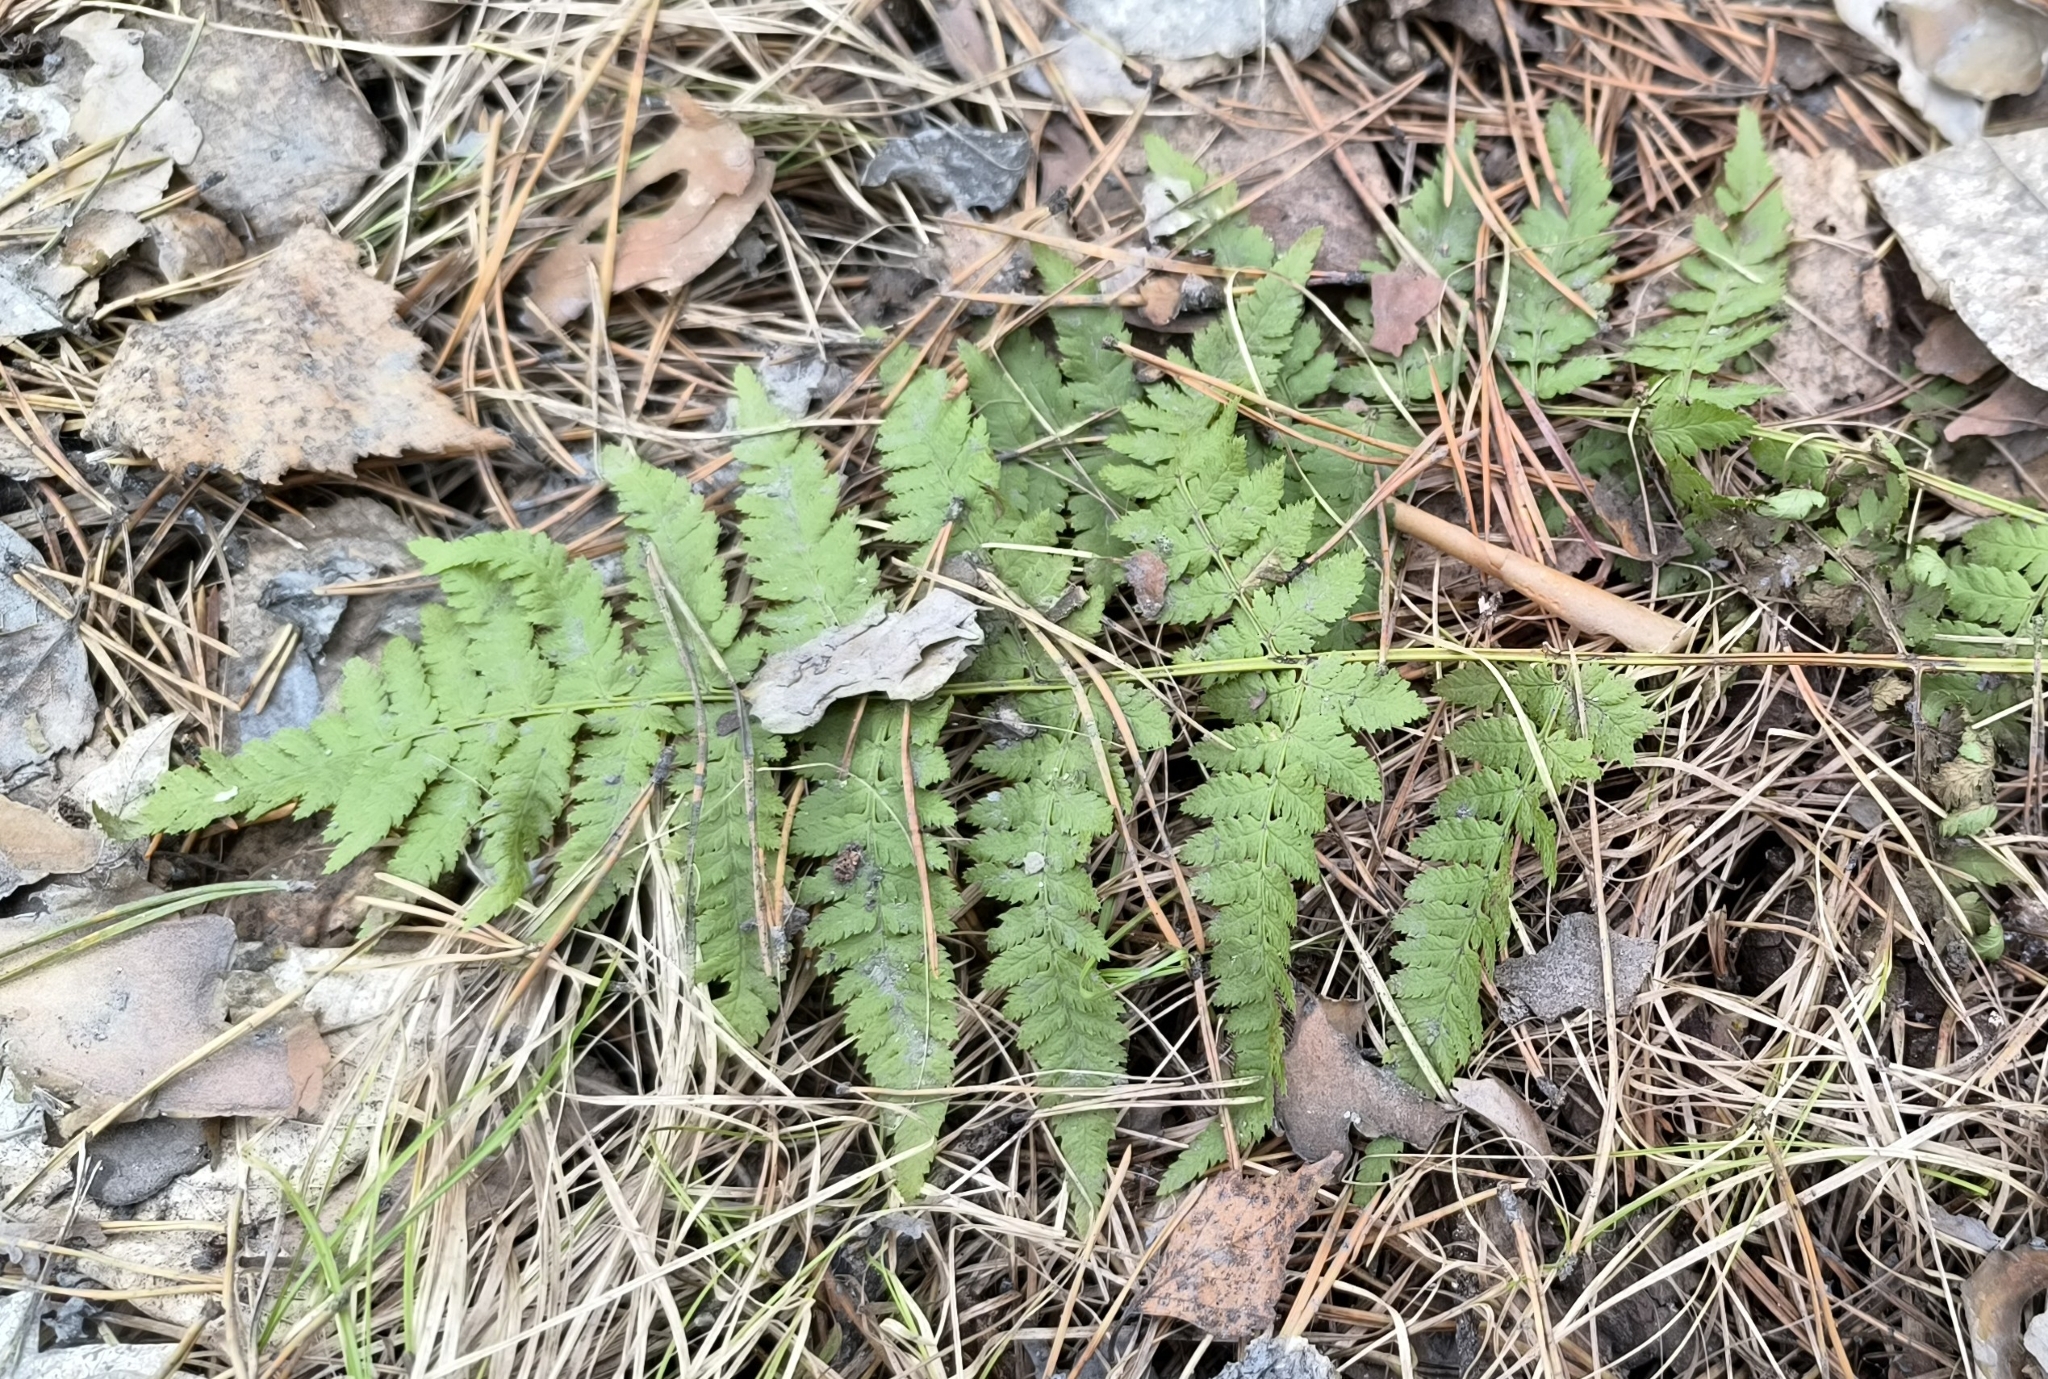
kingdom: Plantae
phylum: Tracheophyta
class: Polypodiopsida
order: Polypodiales
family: Dryopteridaceae
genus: Dryopteris
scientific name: Dryopteris carthusiana
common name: Narrow buckler-fern
